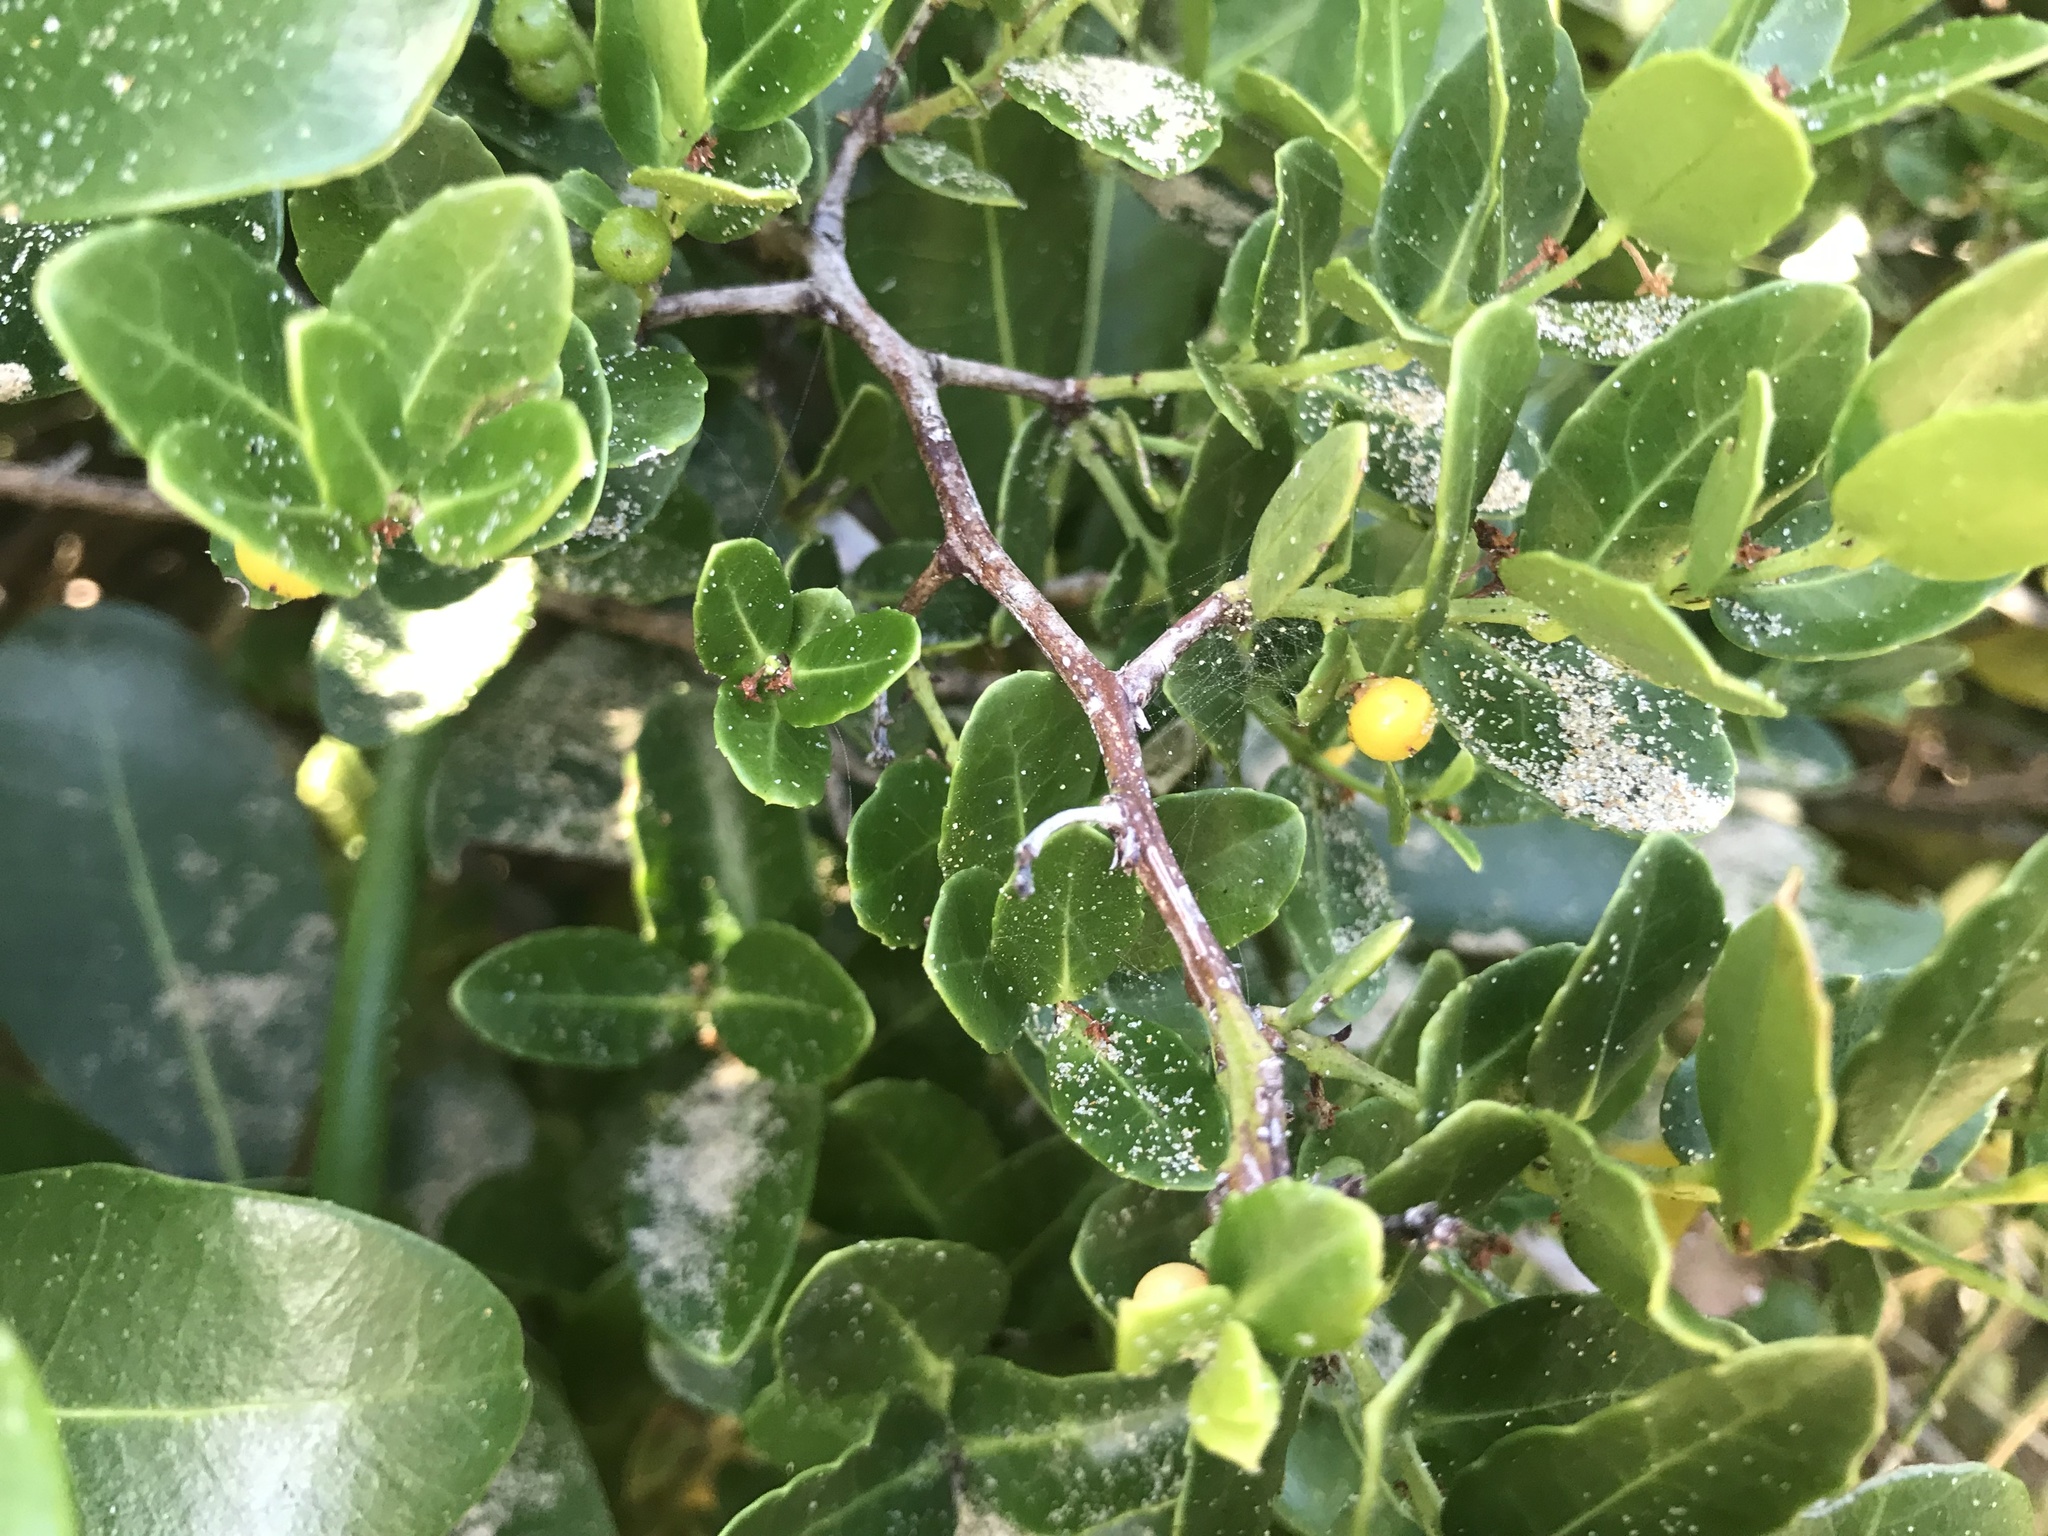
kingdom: Plantae
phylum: Tracheophyta
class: Magnoliopsida
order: Brassicales
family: Capparaceae
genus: Capparis
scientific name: Capparis sepiaria
